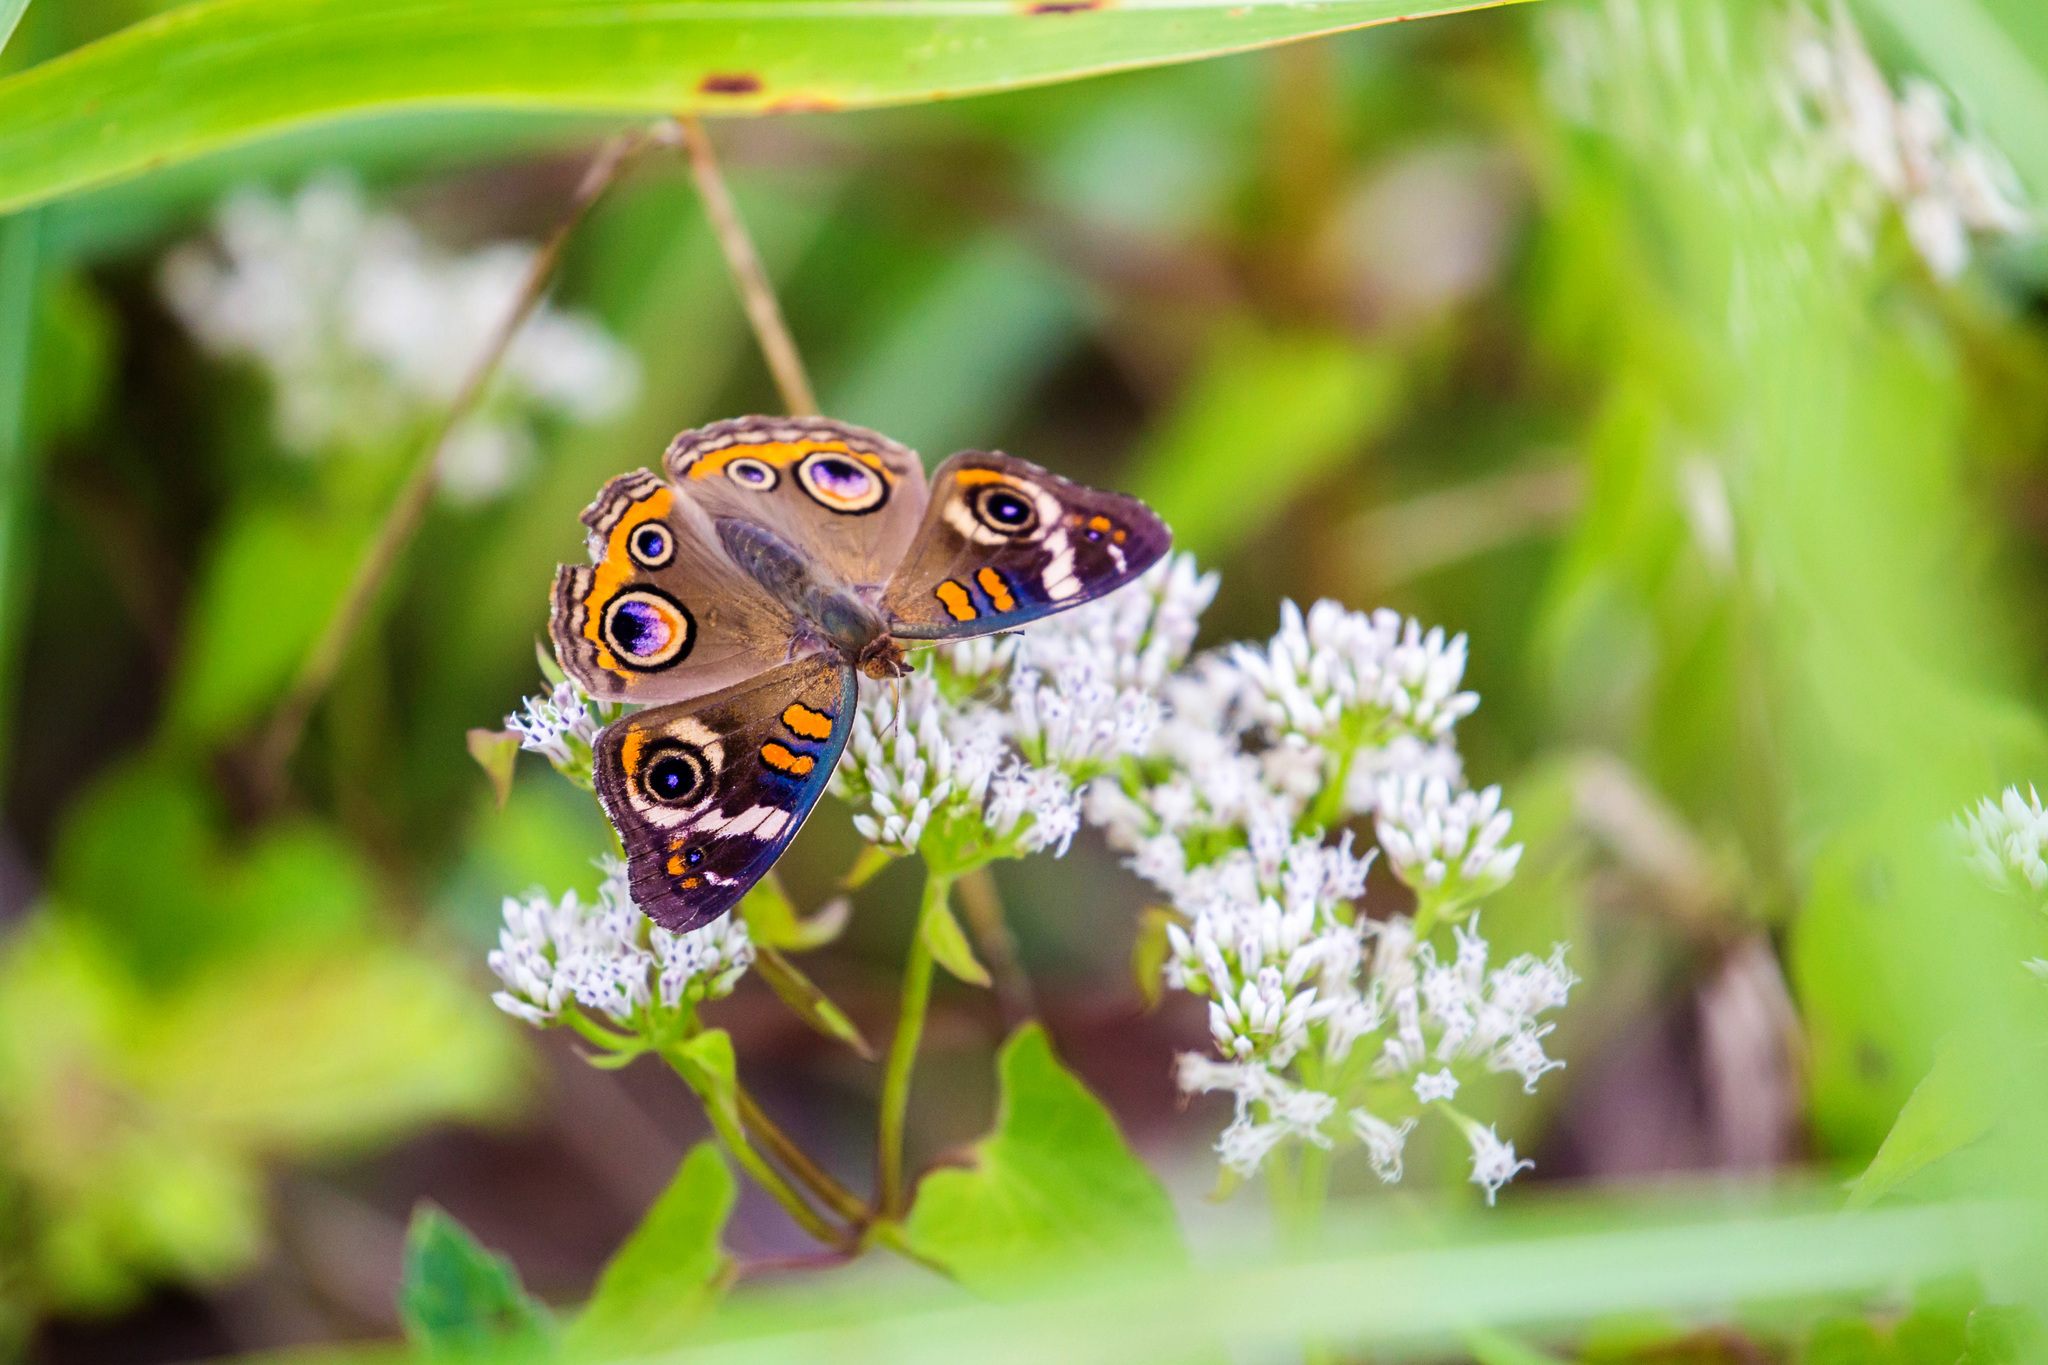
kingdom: Animalia
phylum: Arthropoda
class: Insecta
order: Lepidoptera
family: Nymphalidae
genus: Junonia
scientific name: Junonia coenia
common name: Common buckeye
